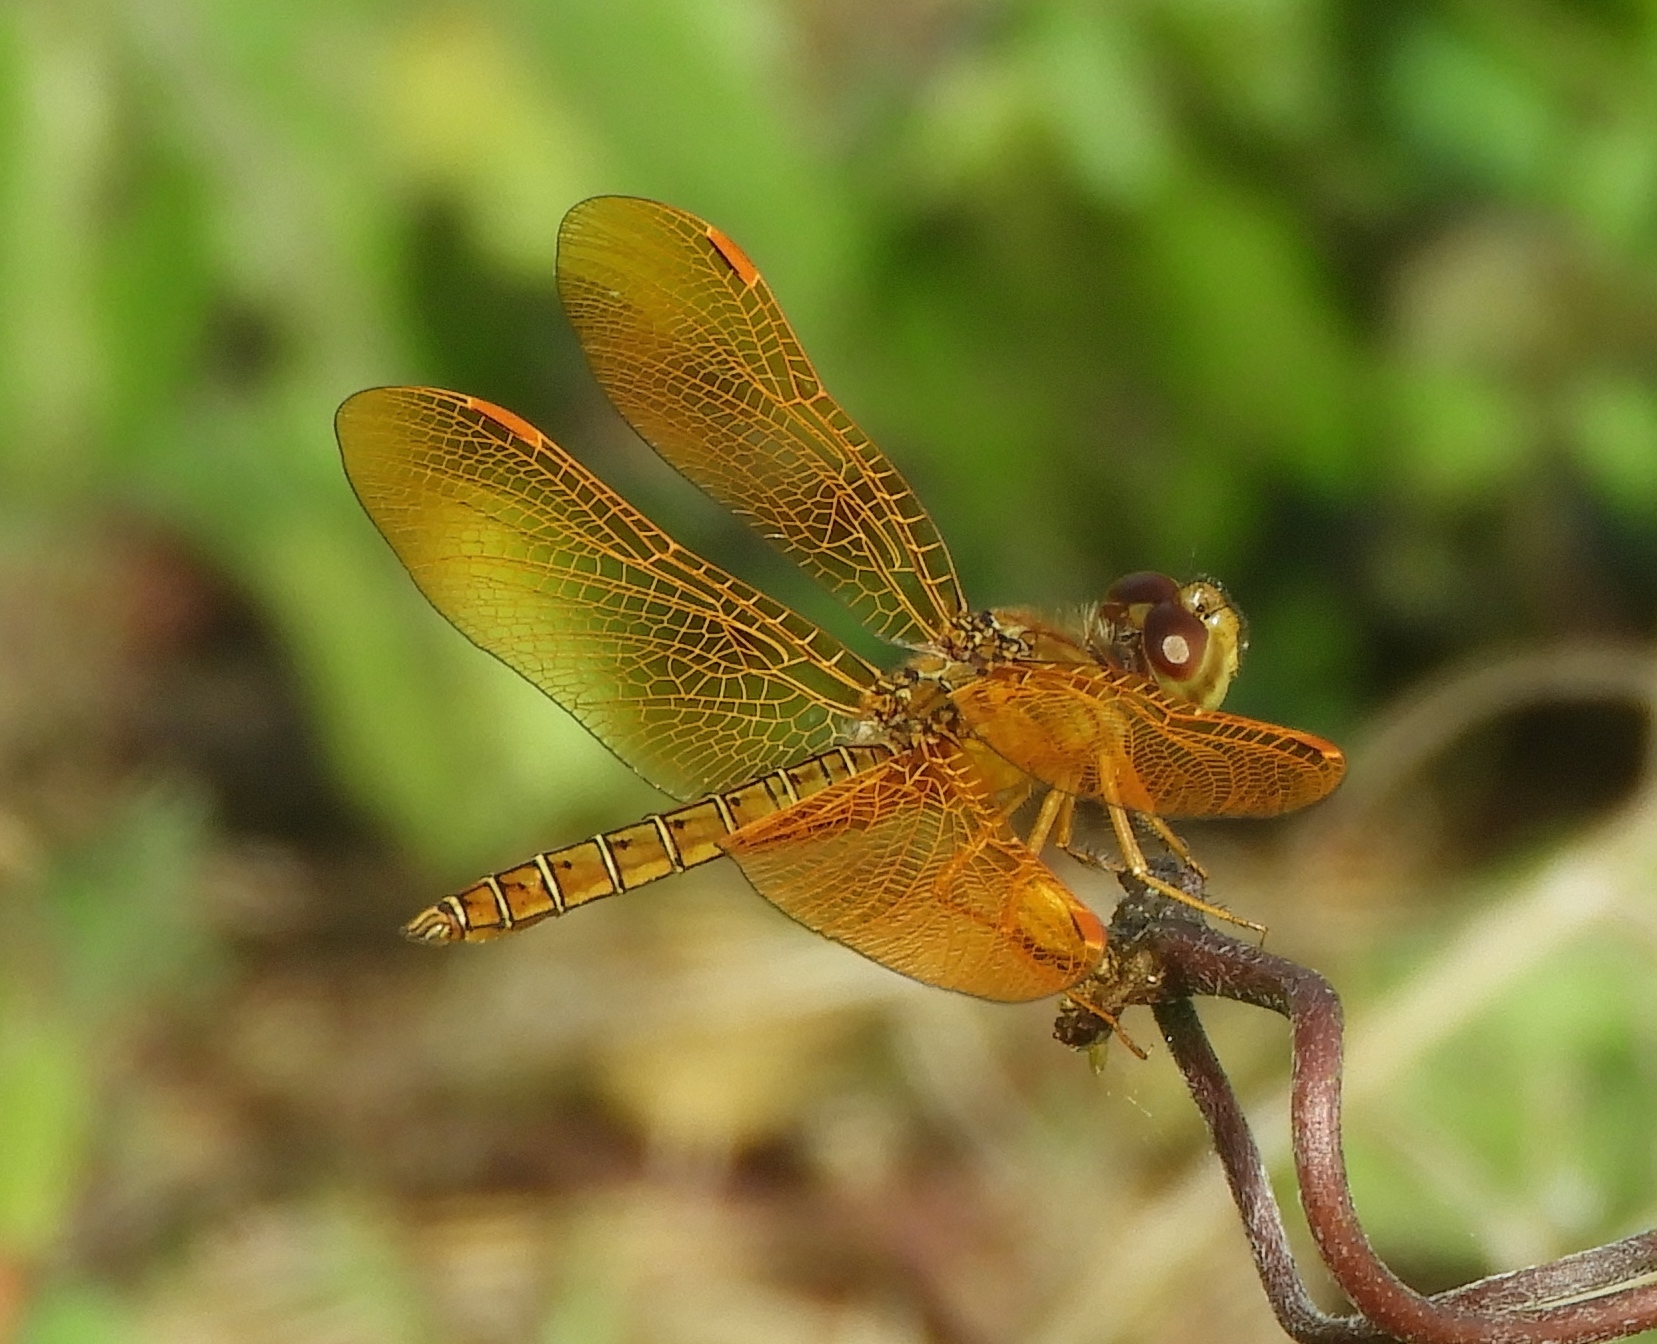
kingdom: Animalia
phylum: Arthropoda
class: Insecta
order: Odonata
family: Libellulidae
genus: Perithemis
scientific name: Perithemis intensa
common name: Mexican amberwing
